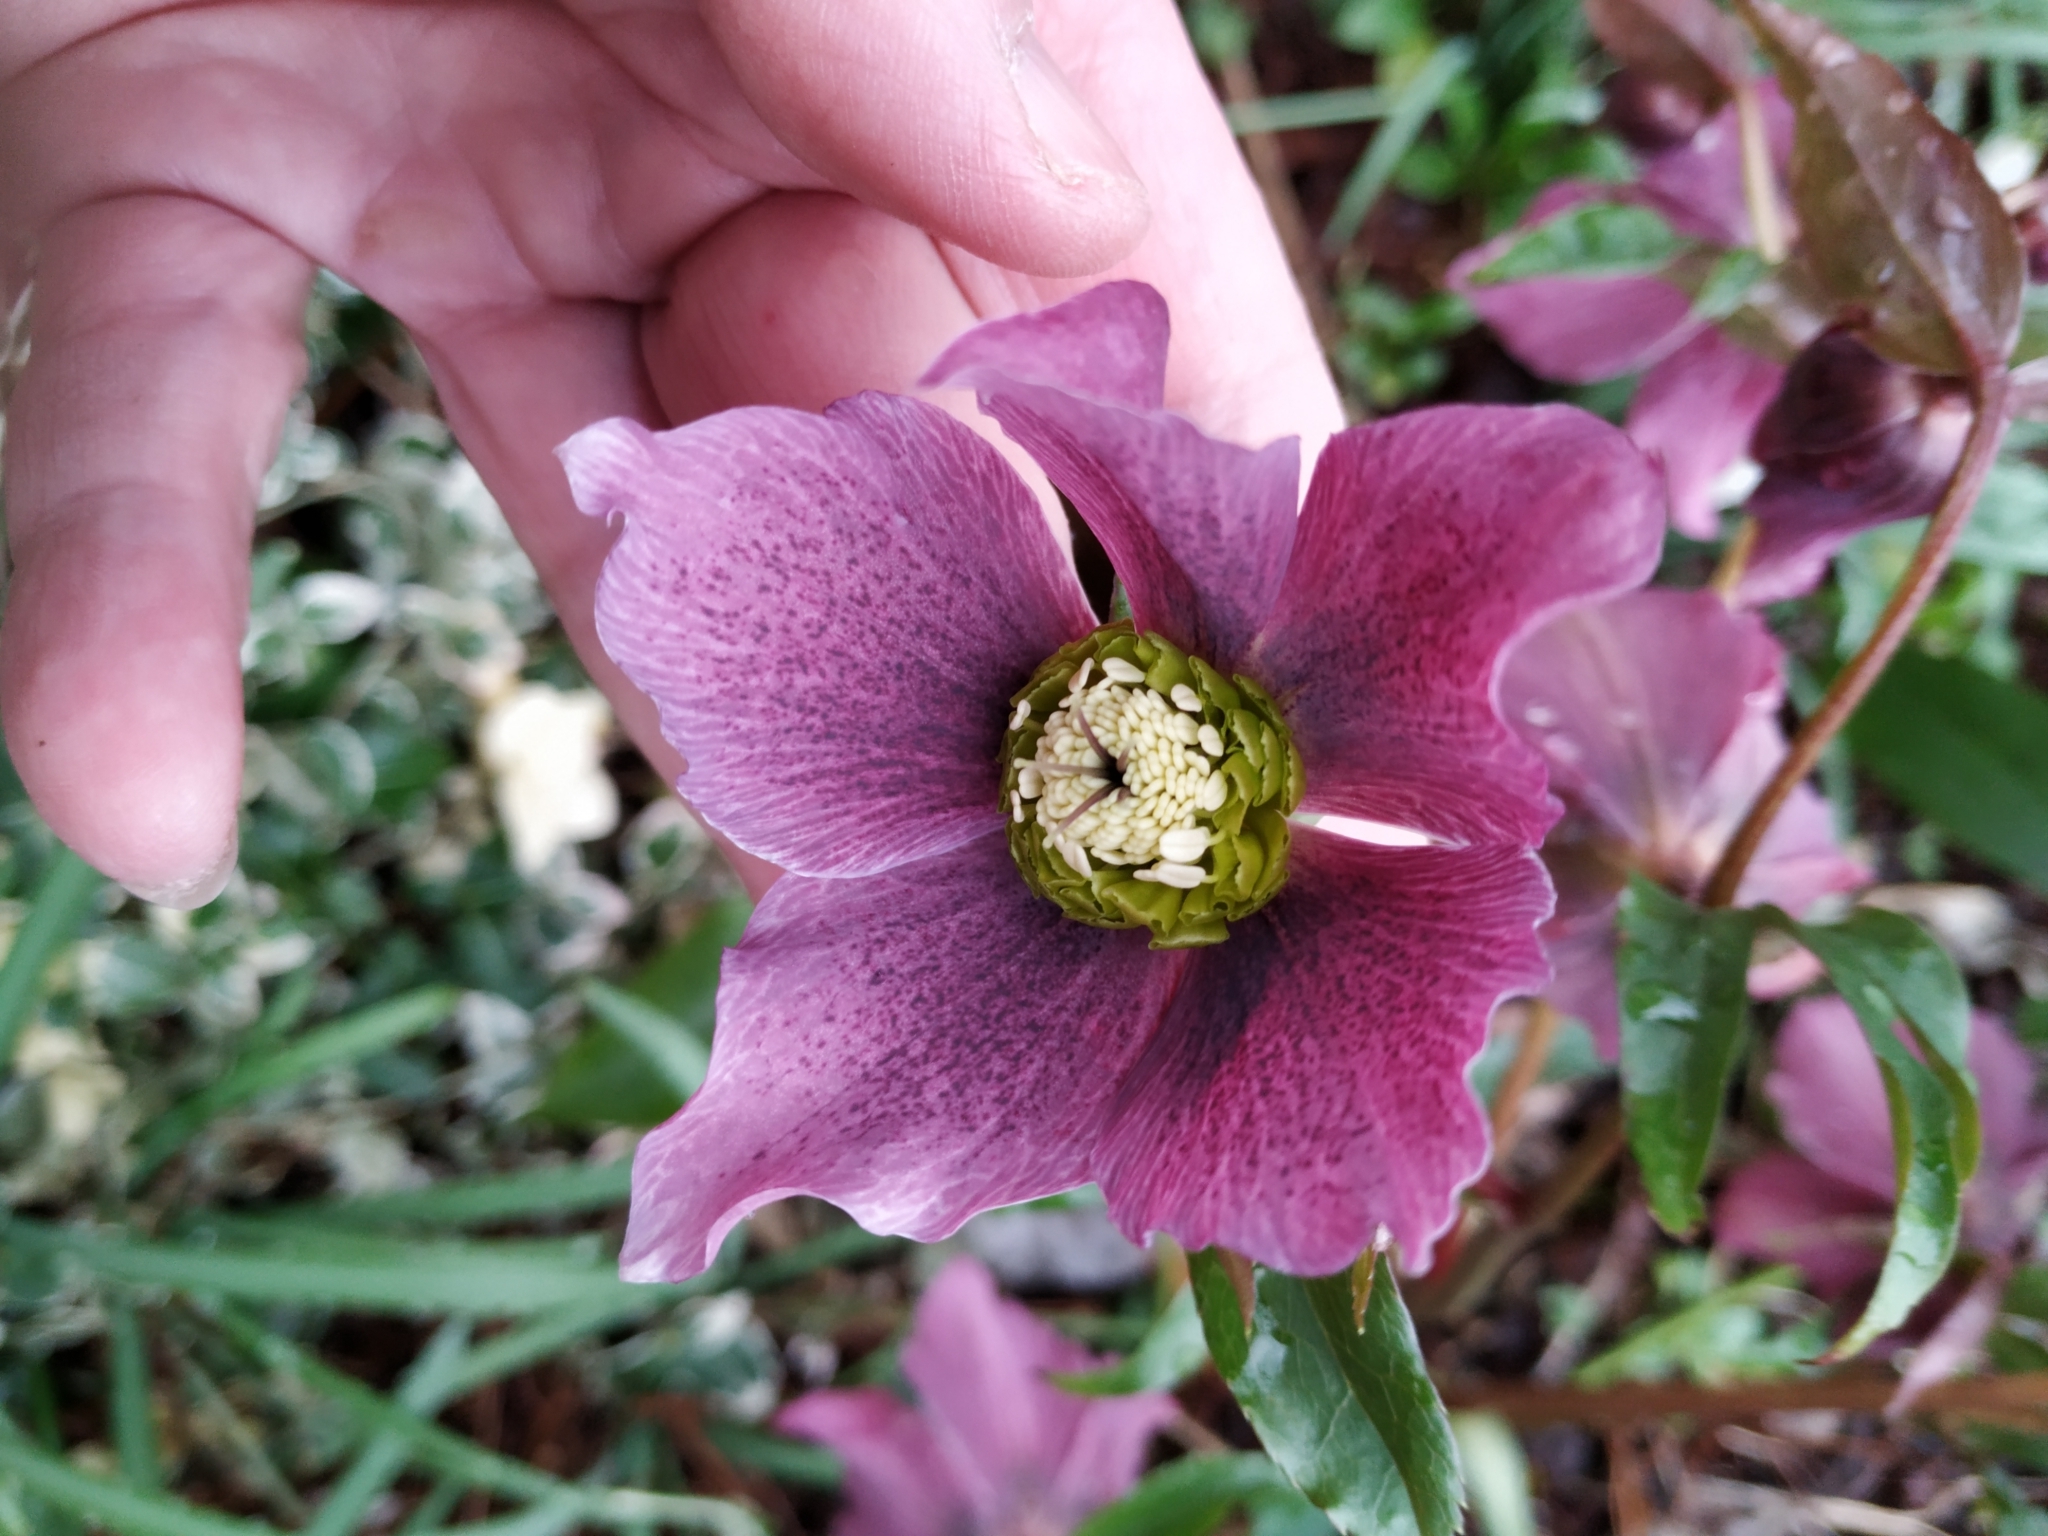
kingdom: Plantae
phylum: Tracheophyta
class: Magnoliopsida
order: Ranunculales
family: Ranunculaceae
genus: Helleborus
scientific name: Helleborus orientalis
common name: Lenten-rose
